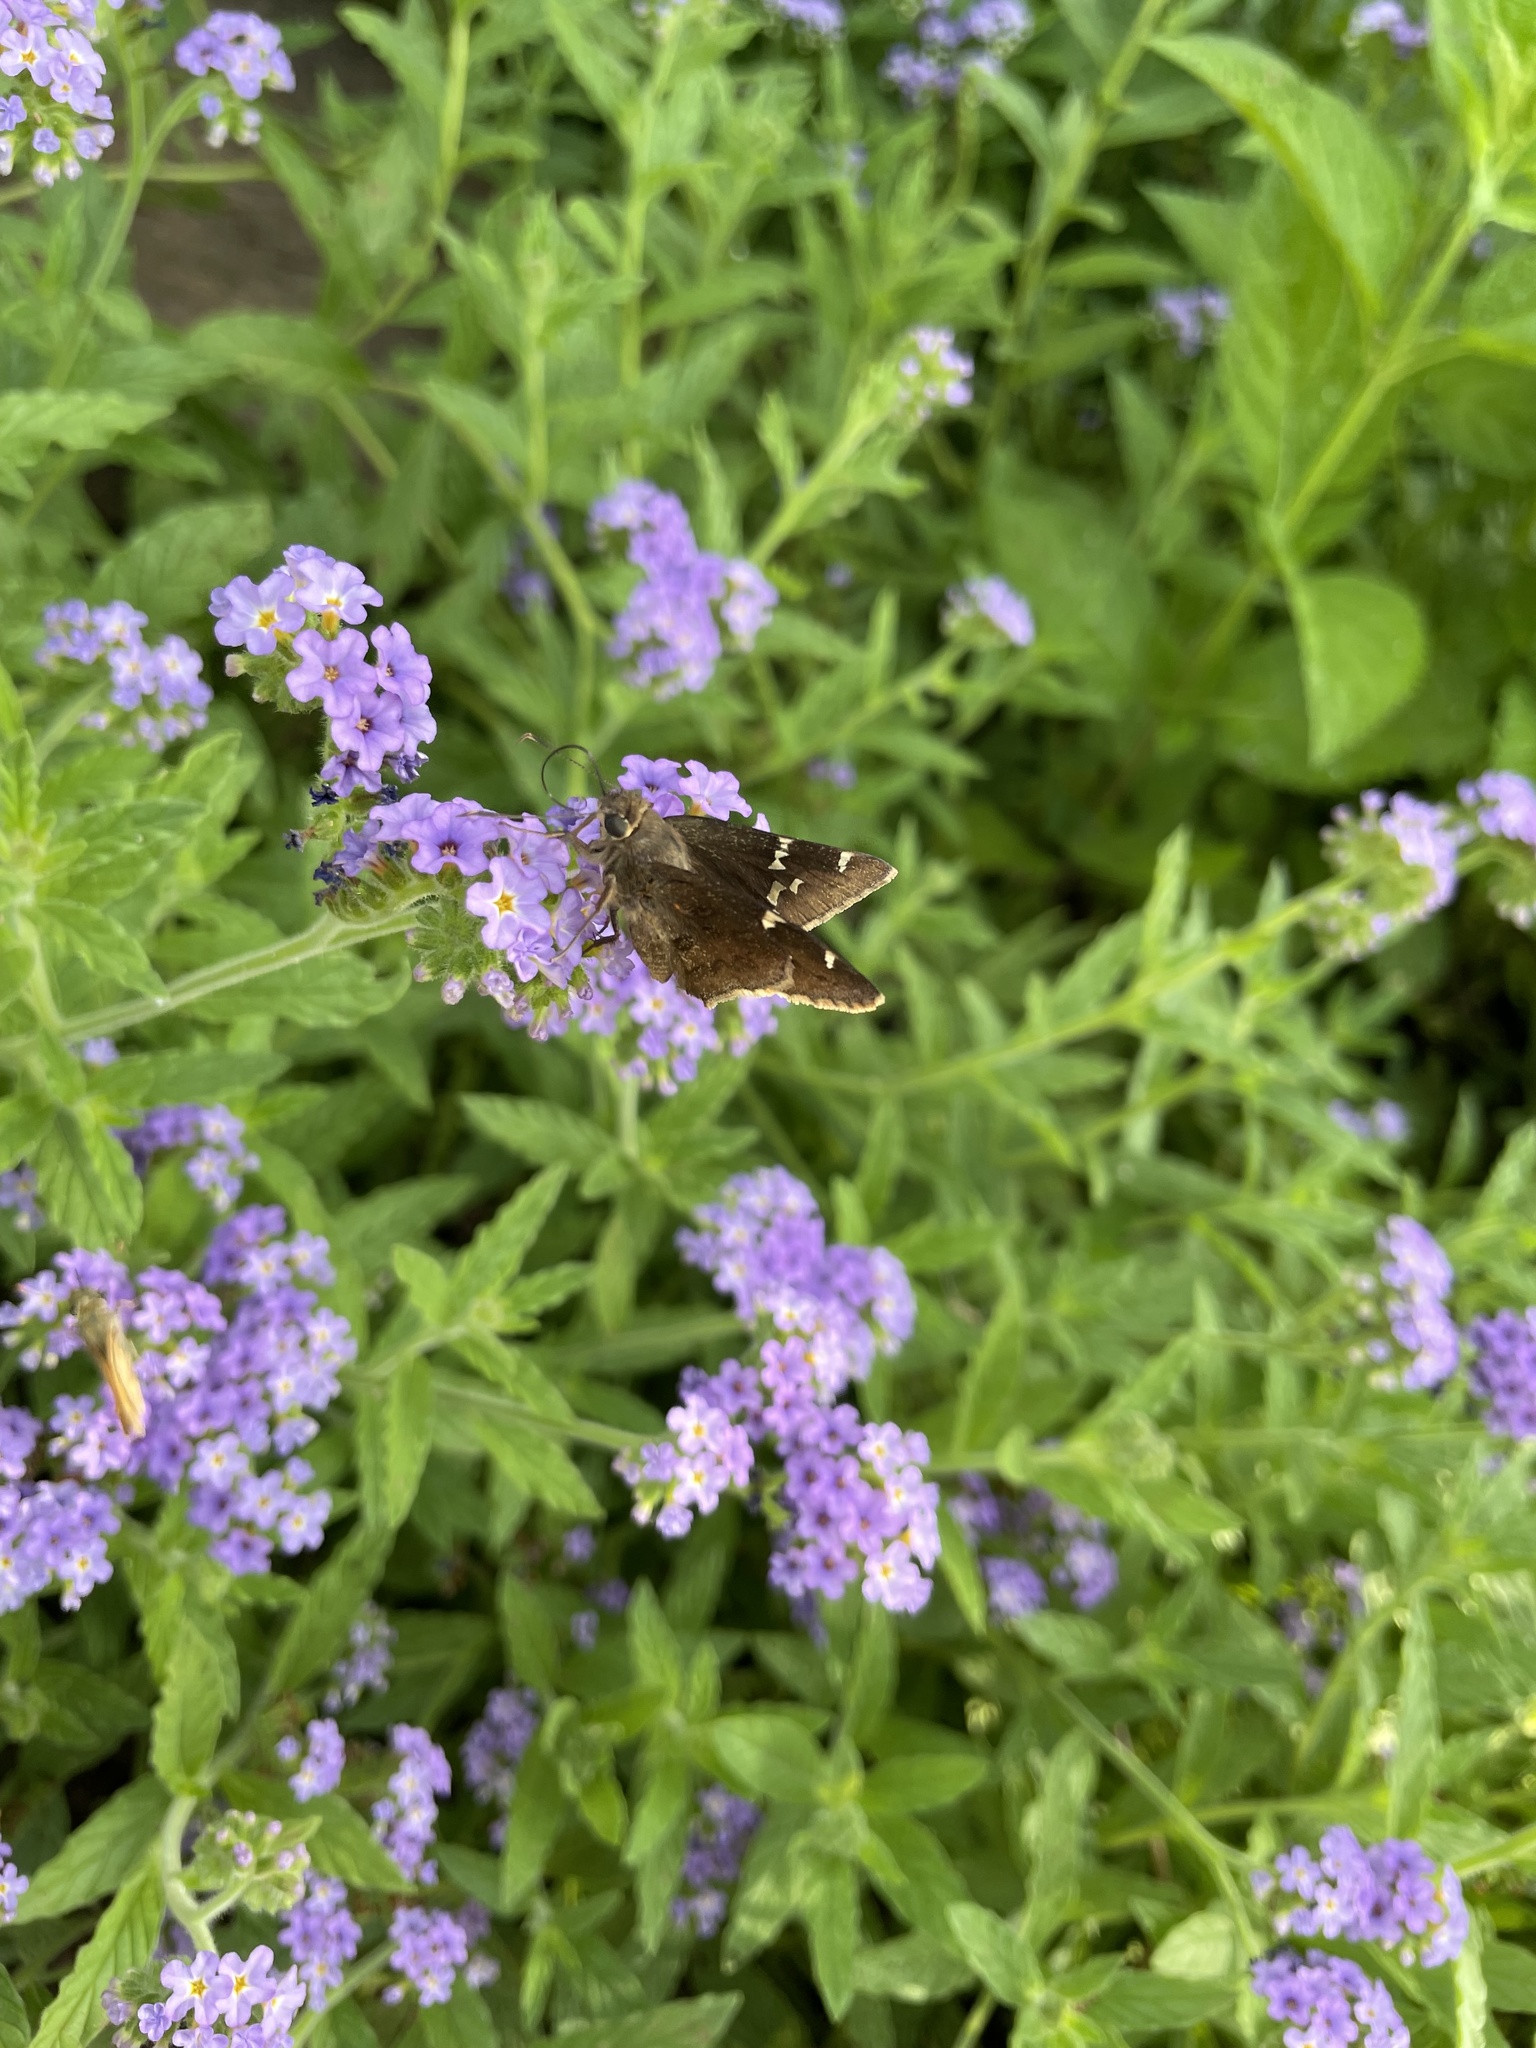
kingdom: Animalia
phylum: Arthropoda
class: Insecta
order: Lepidoptera
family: Hesperiidae
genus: Thorybes
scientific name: Thorybes daunus
